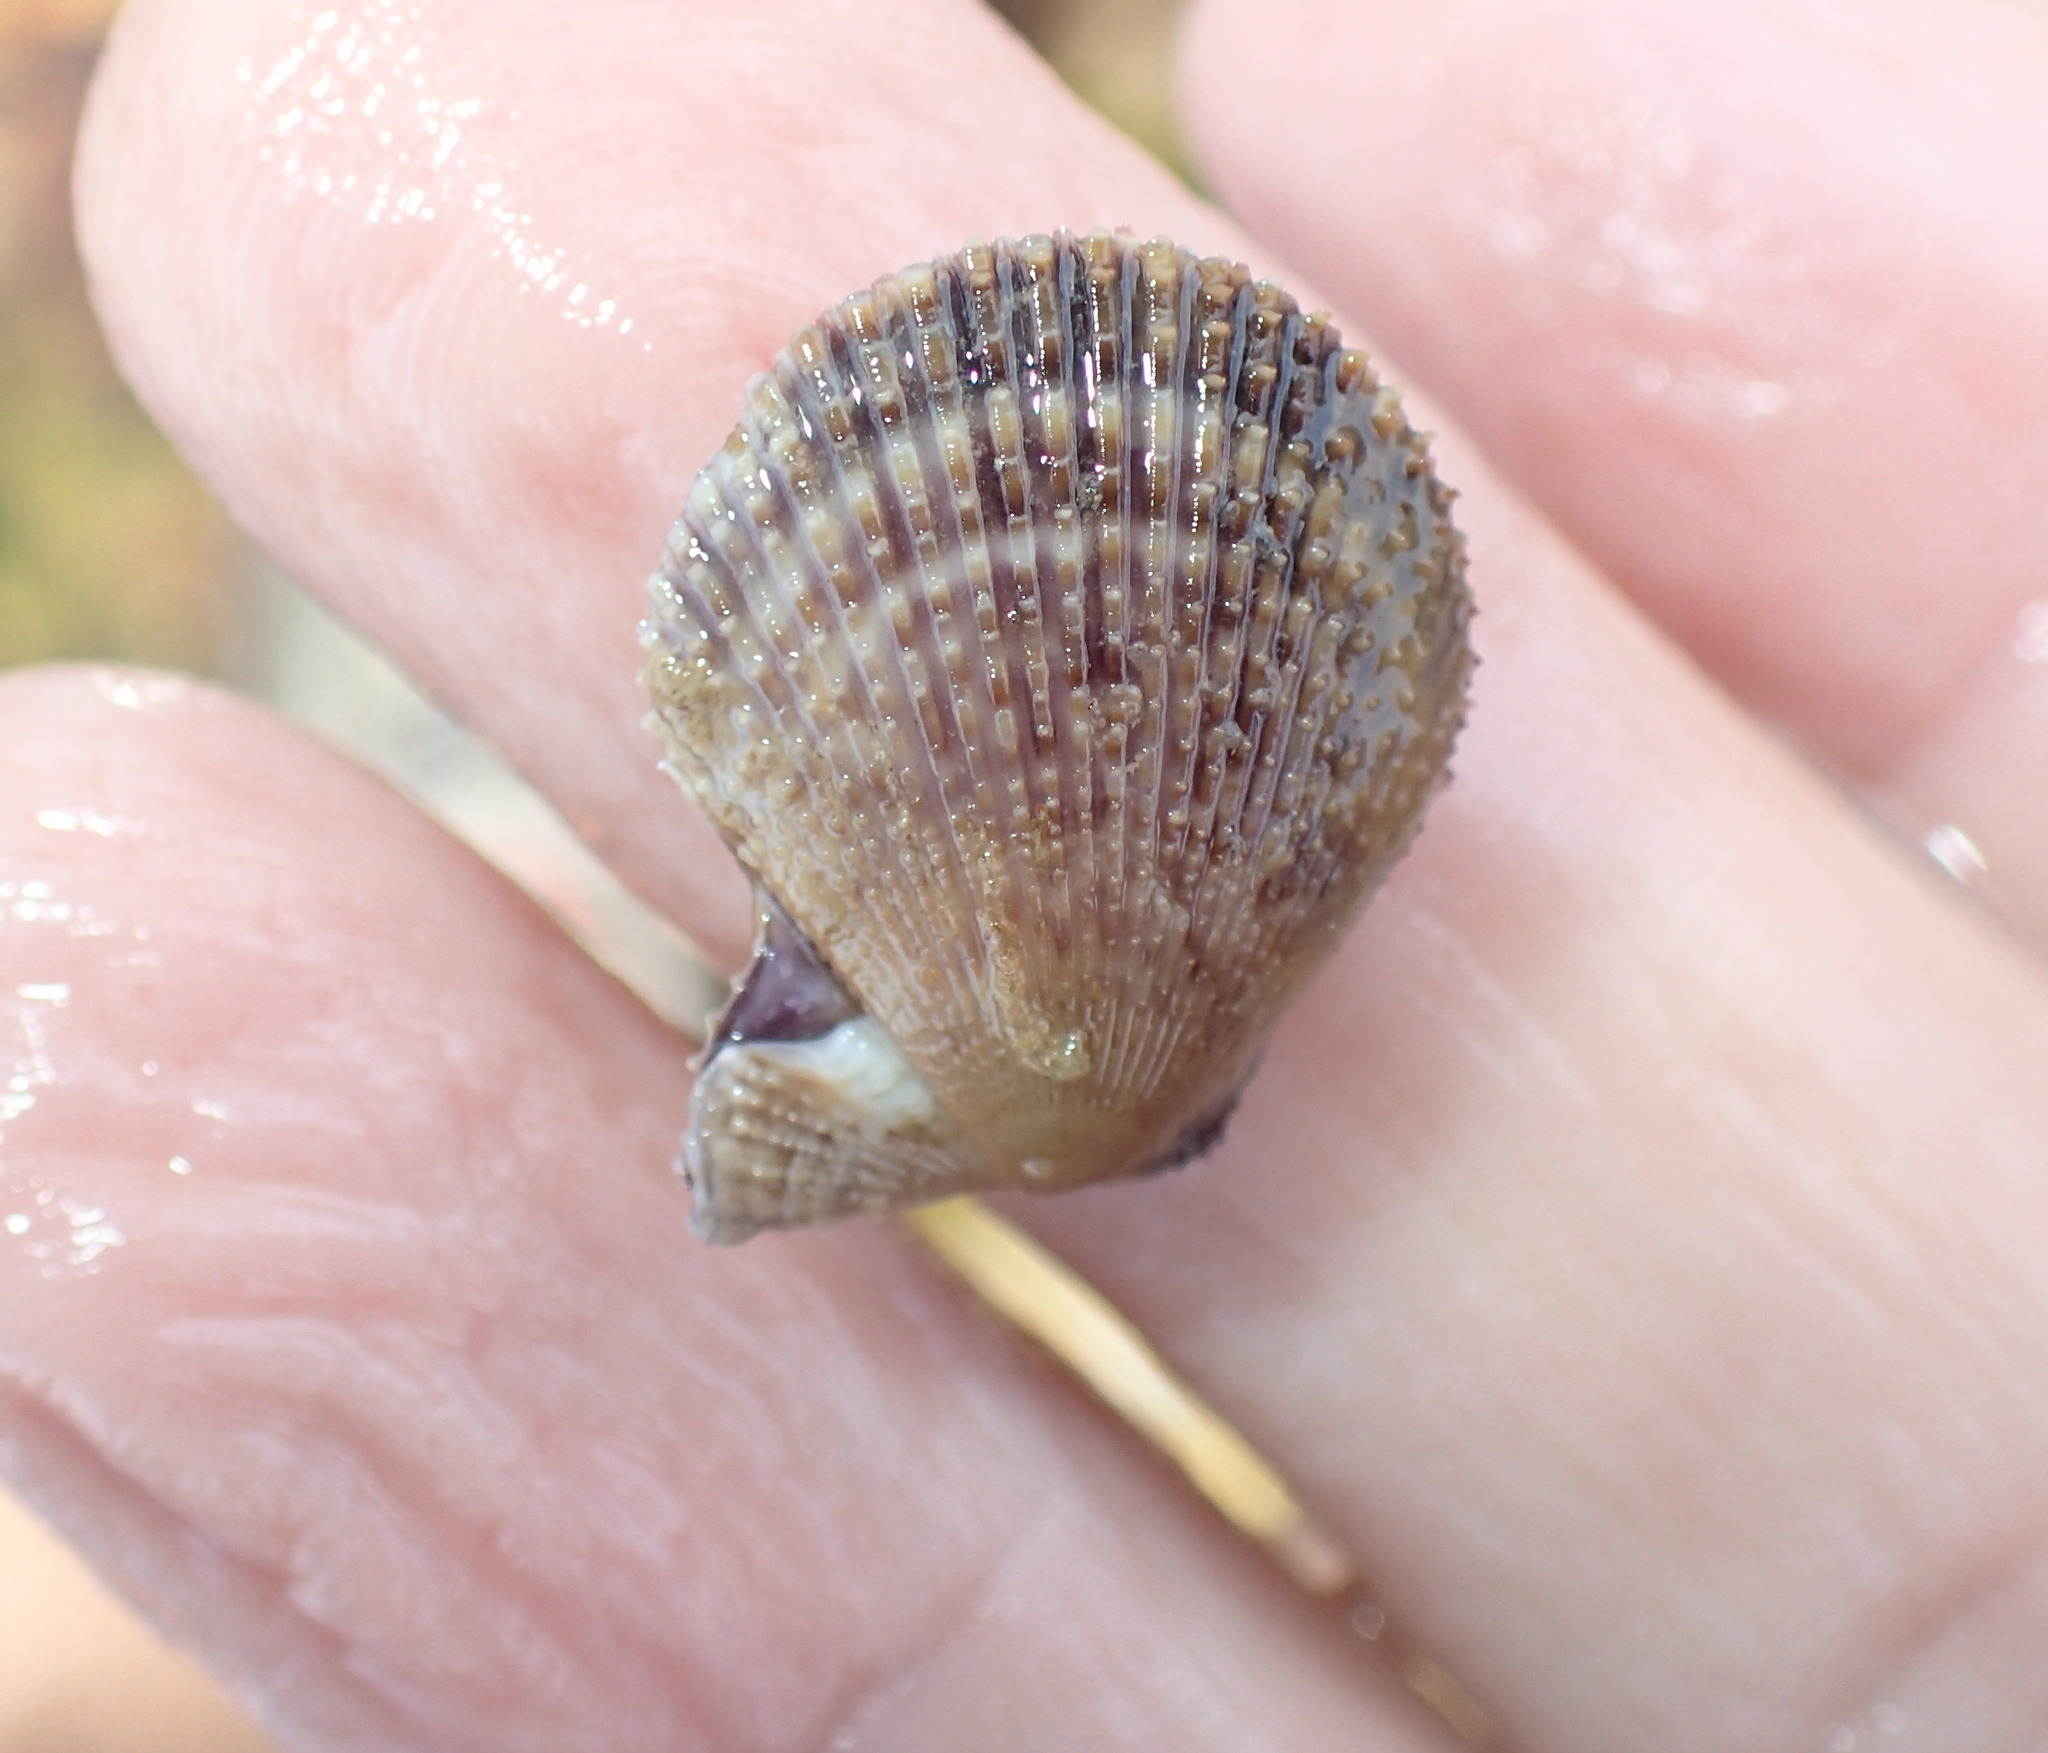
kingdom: Animalia
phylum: Mollusca
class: Bivalvia
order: Pectinida
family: Pectinidae
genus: Mimachlamys
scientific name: Mimachlamys varia
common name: Variegated scallop
